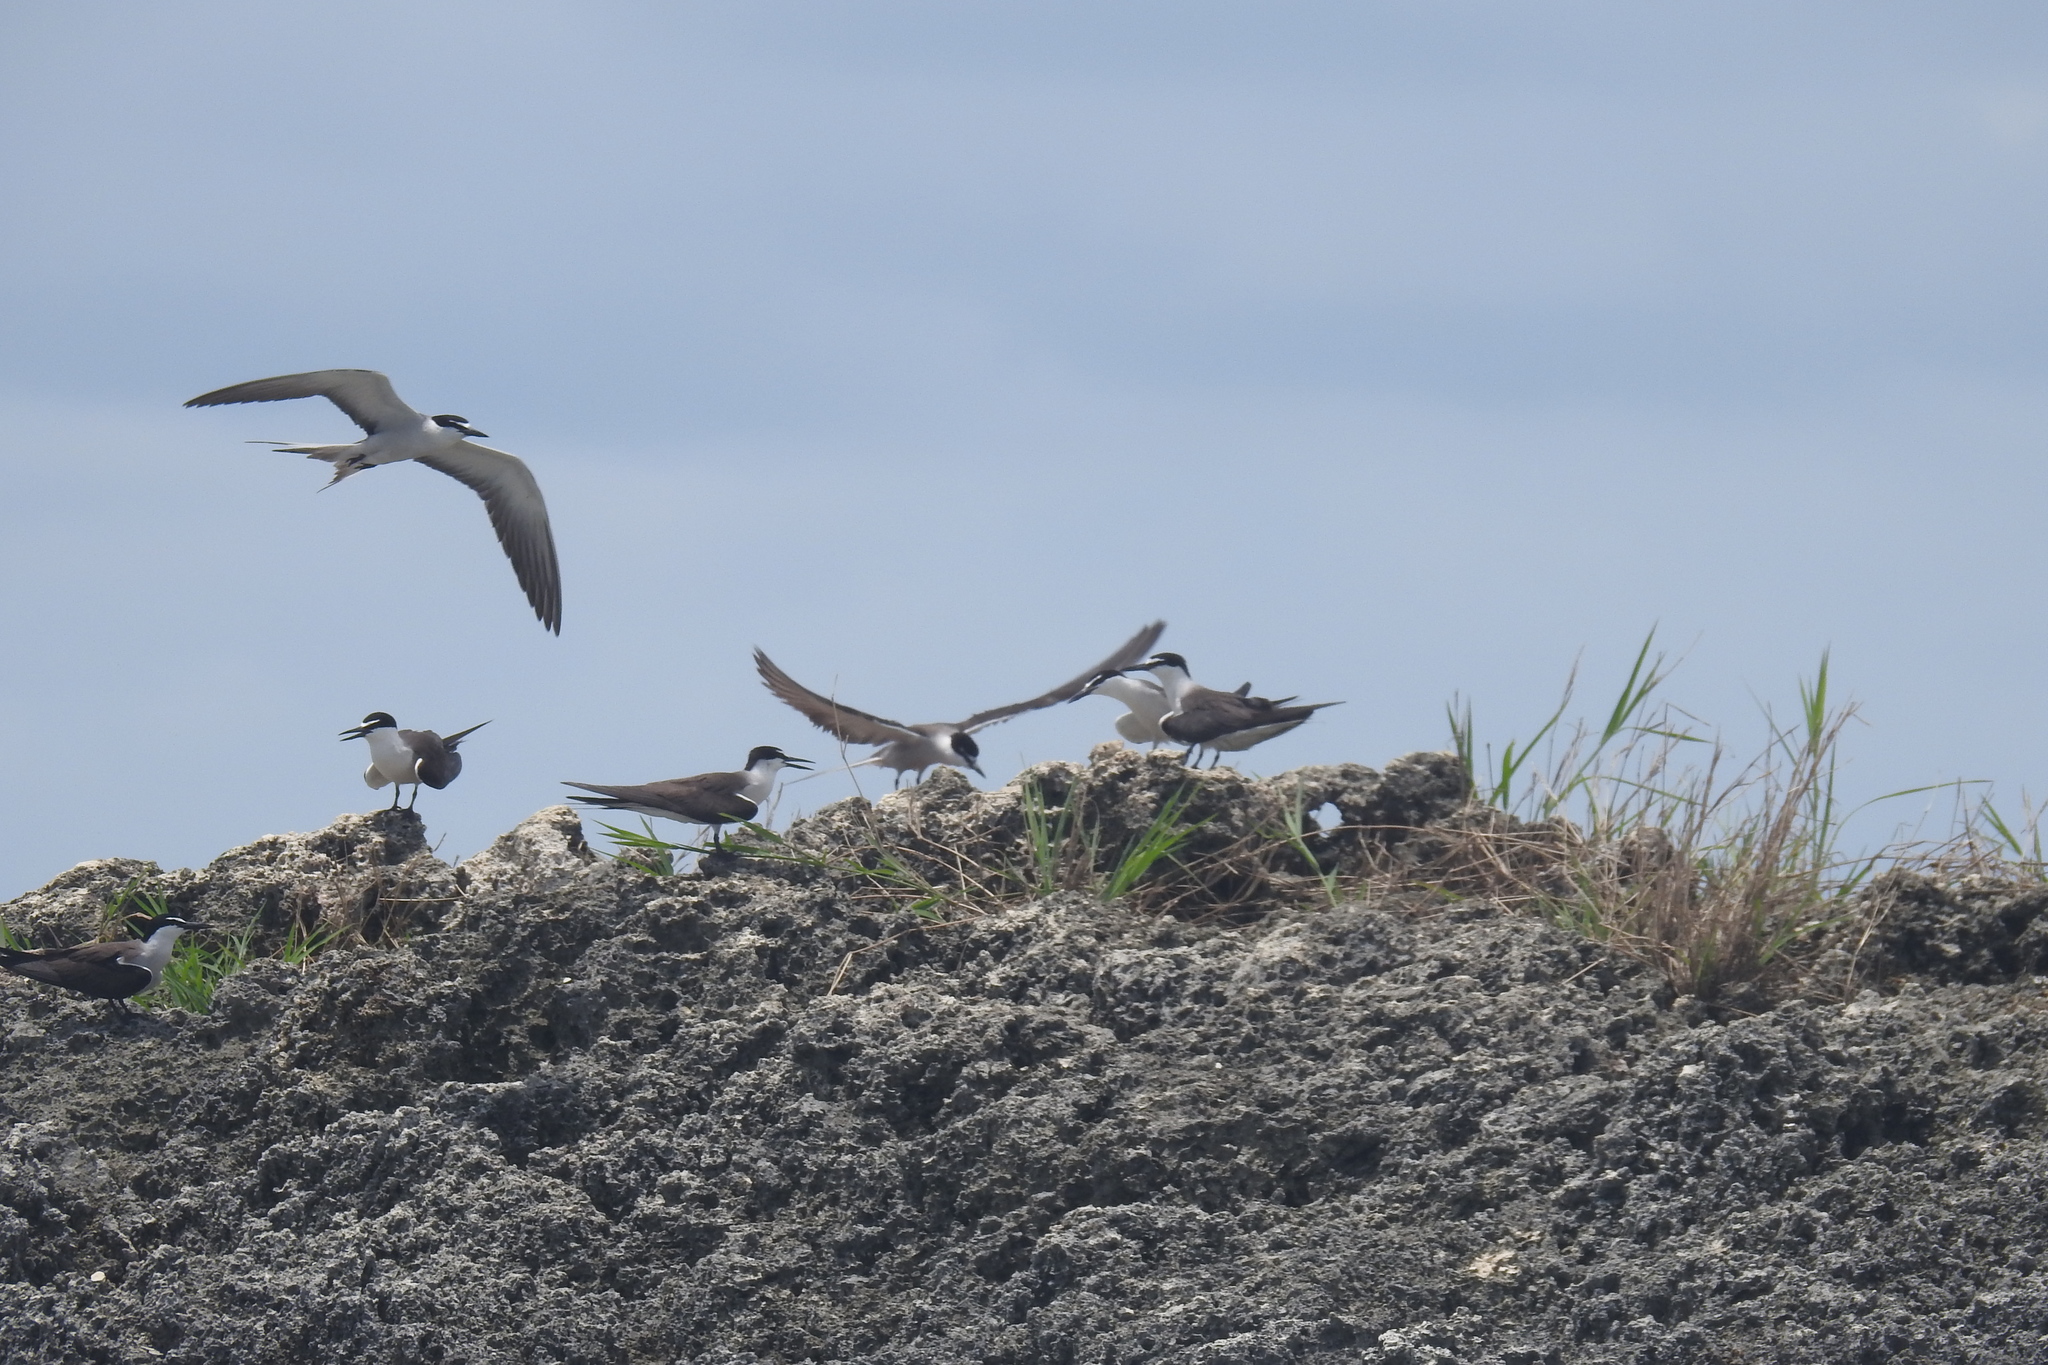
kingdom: Animalia
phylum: Chordata
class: Aves
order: Charadriiformes
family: Laridae
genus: Onychoprion
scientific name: Onychoprion anaethetus
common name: Bridled tern
